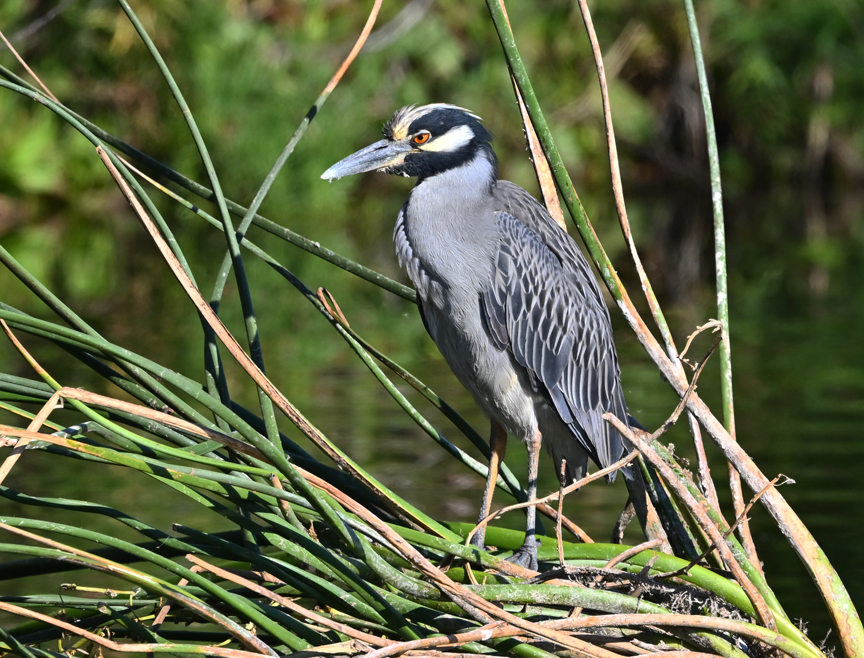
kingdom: Animalia
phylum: Chordata
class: Aves
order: Pelecaniformes
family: Ardeidae
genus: Nyctanassa
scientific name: Nyctanassa violacea
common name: Yellow-crowned night heron
